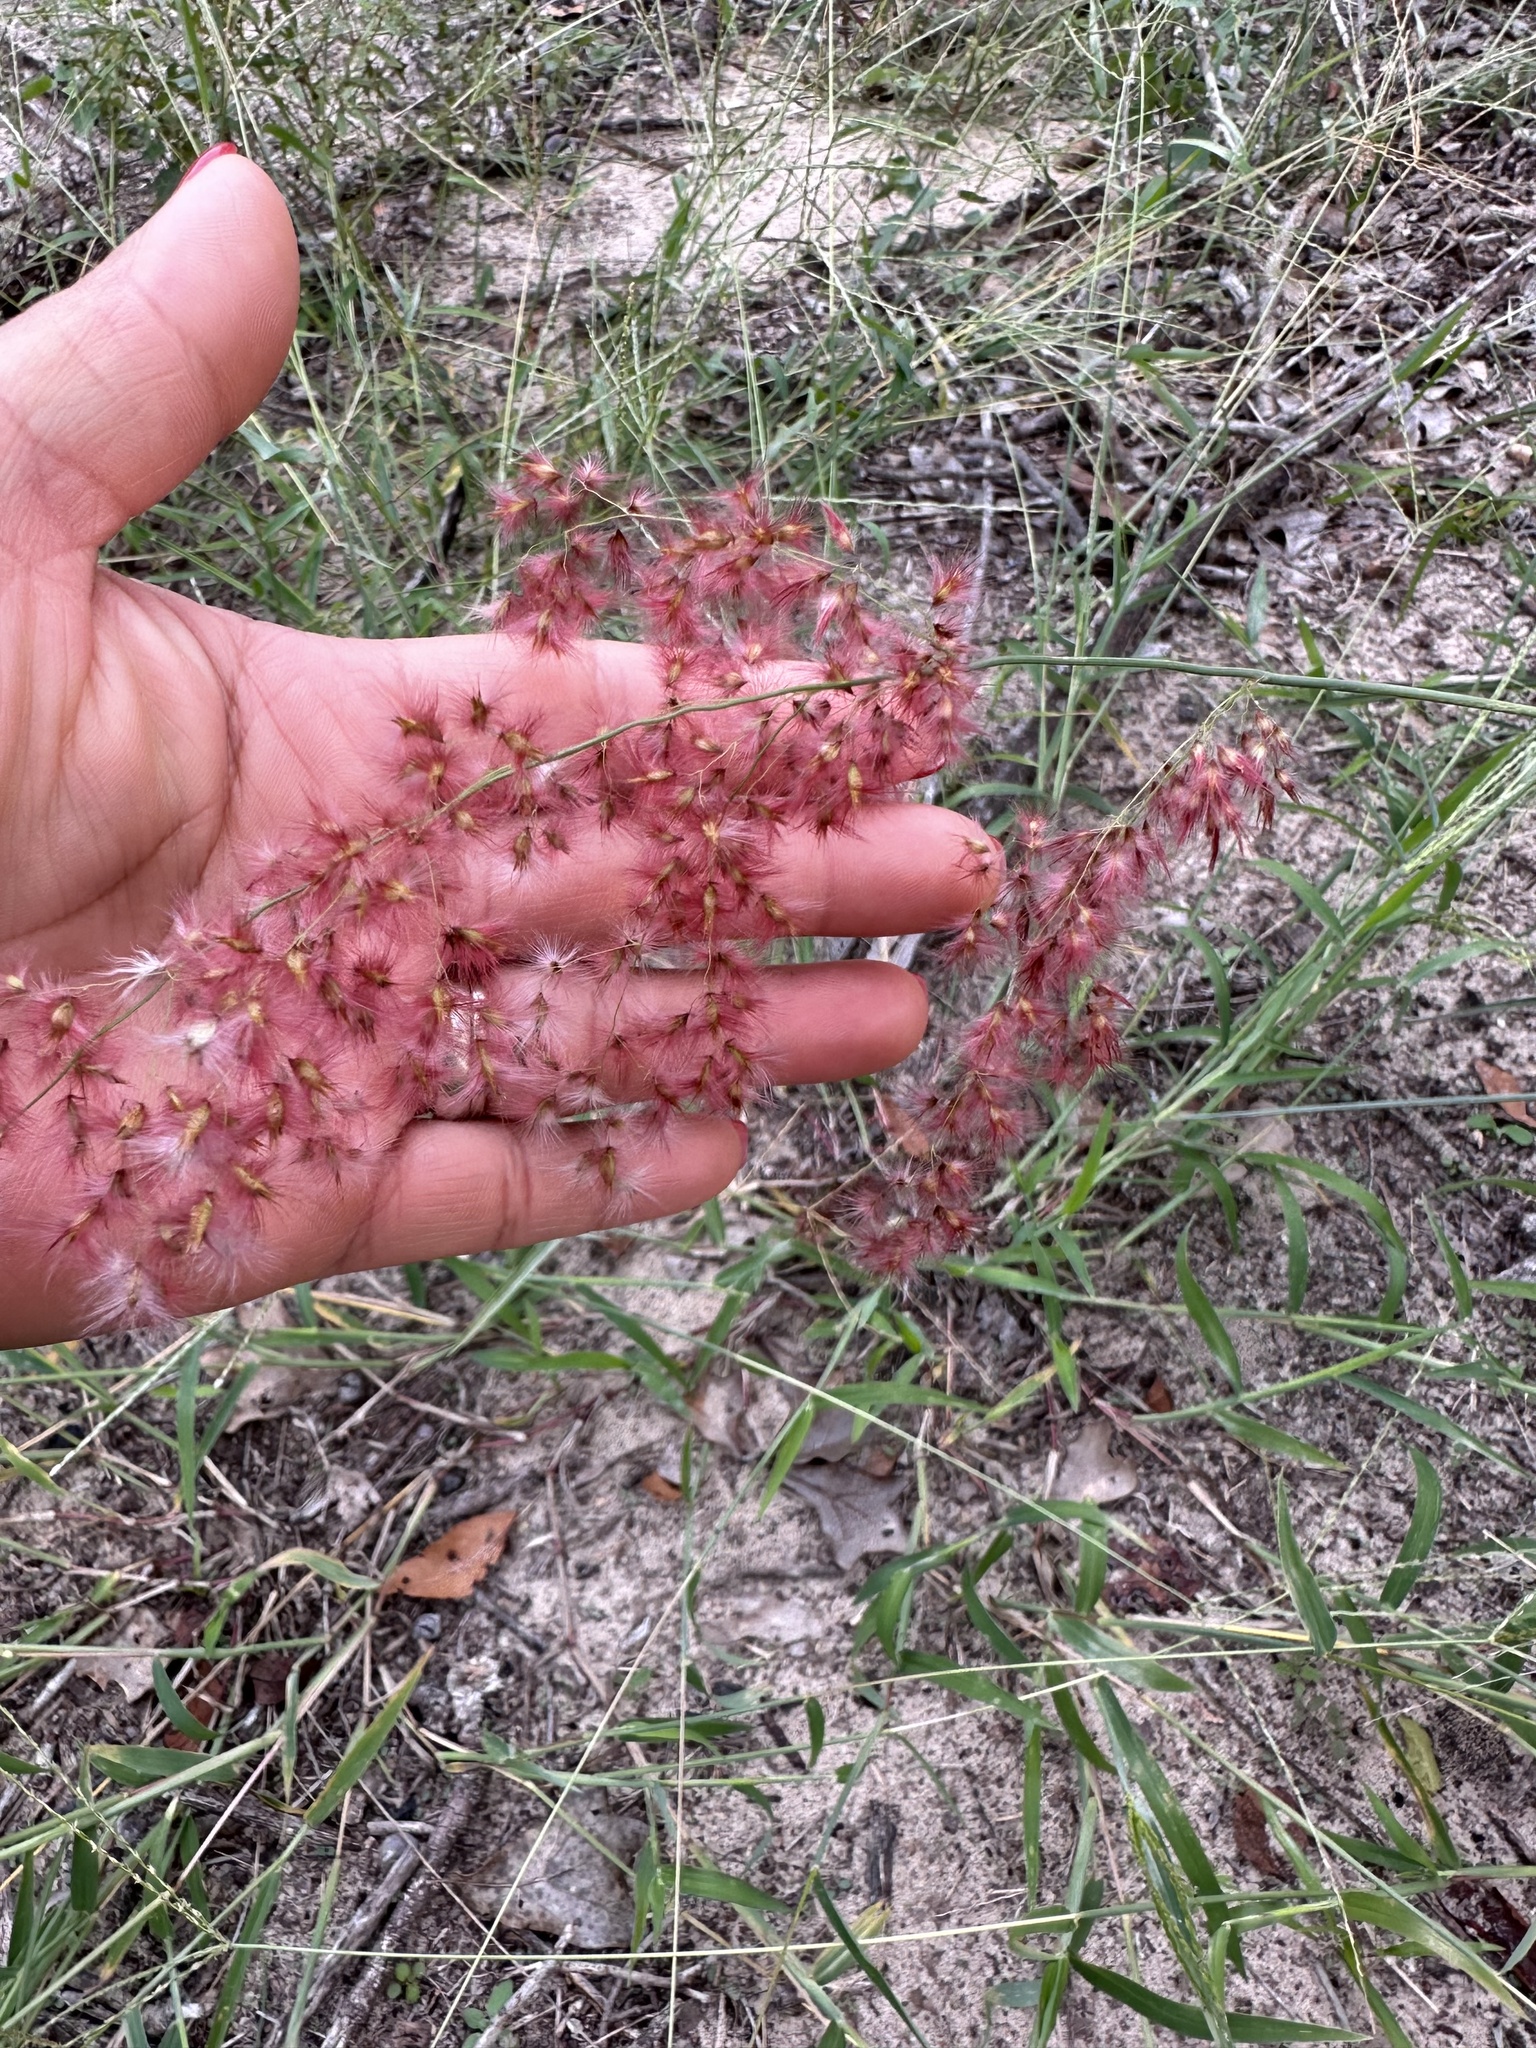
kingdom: Plantae
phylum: Tracheophyta
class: Liliopsida
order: Poales
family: Poaceae
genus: Melinis
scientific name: Melinis repens
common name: Rose natal grass
